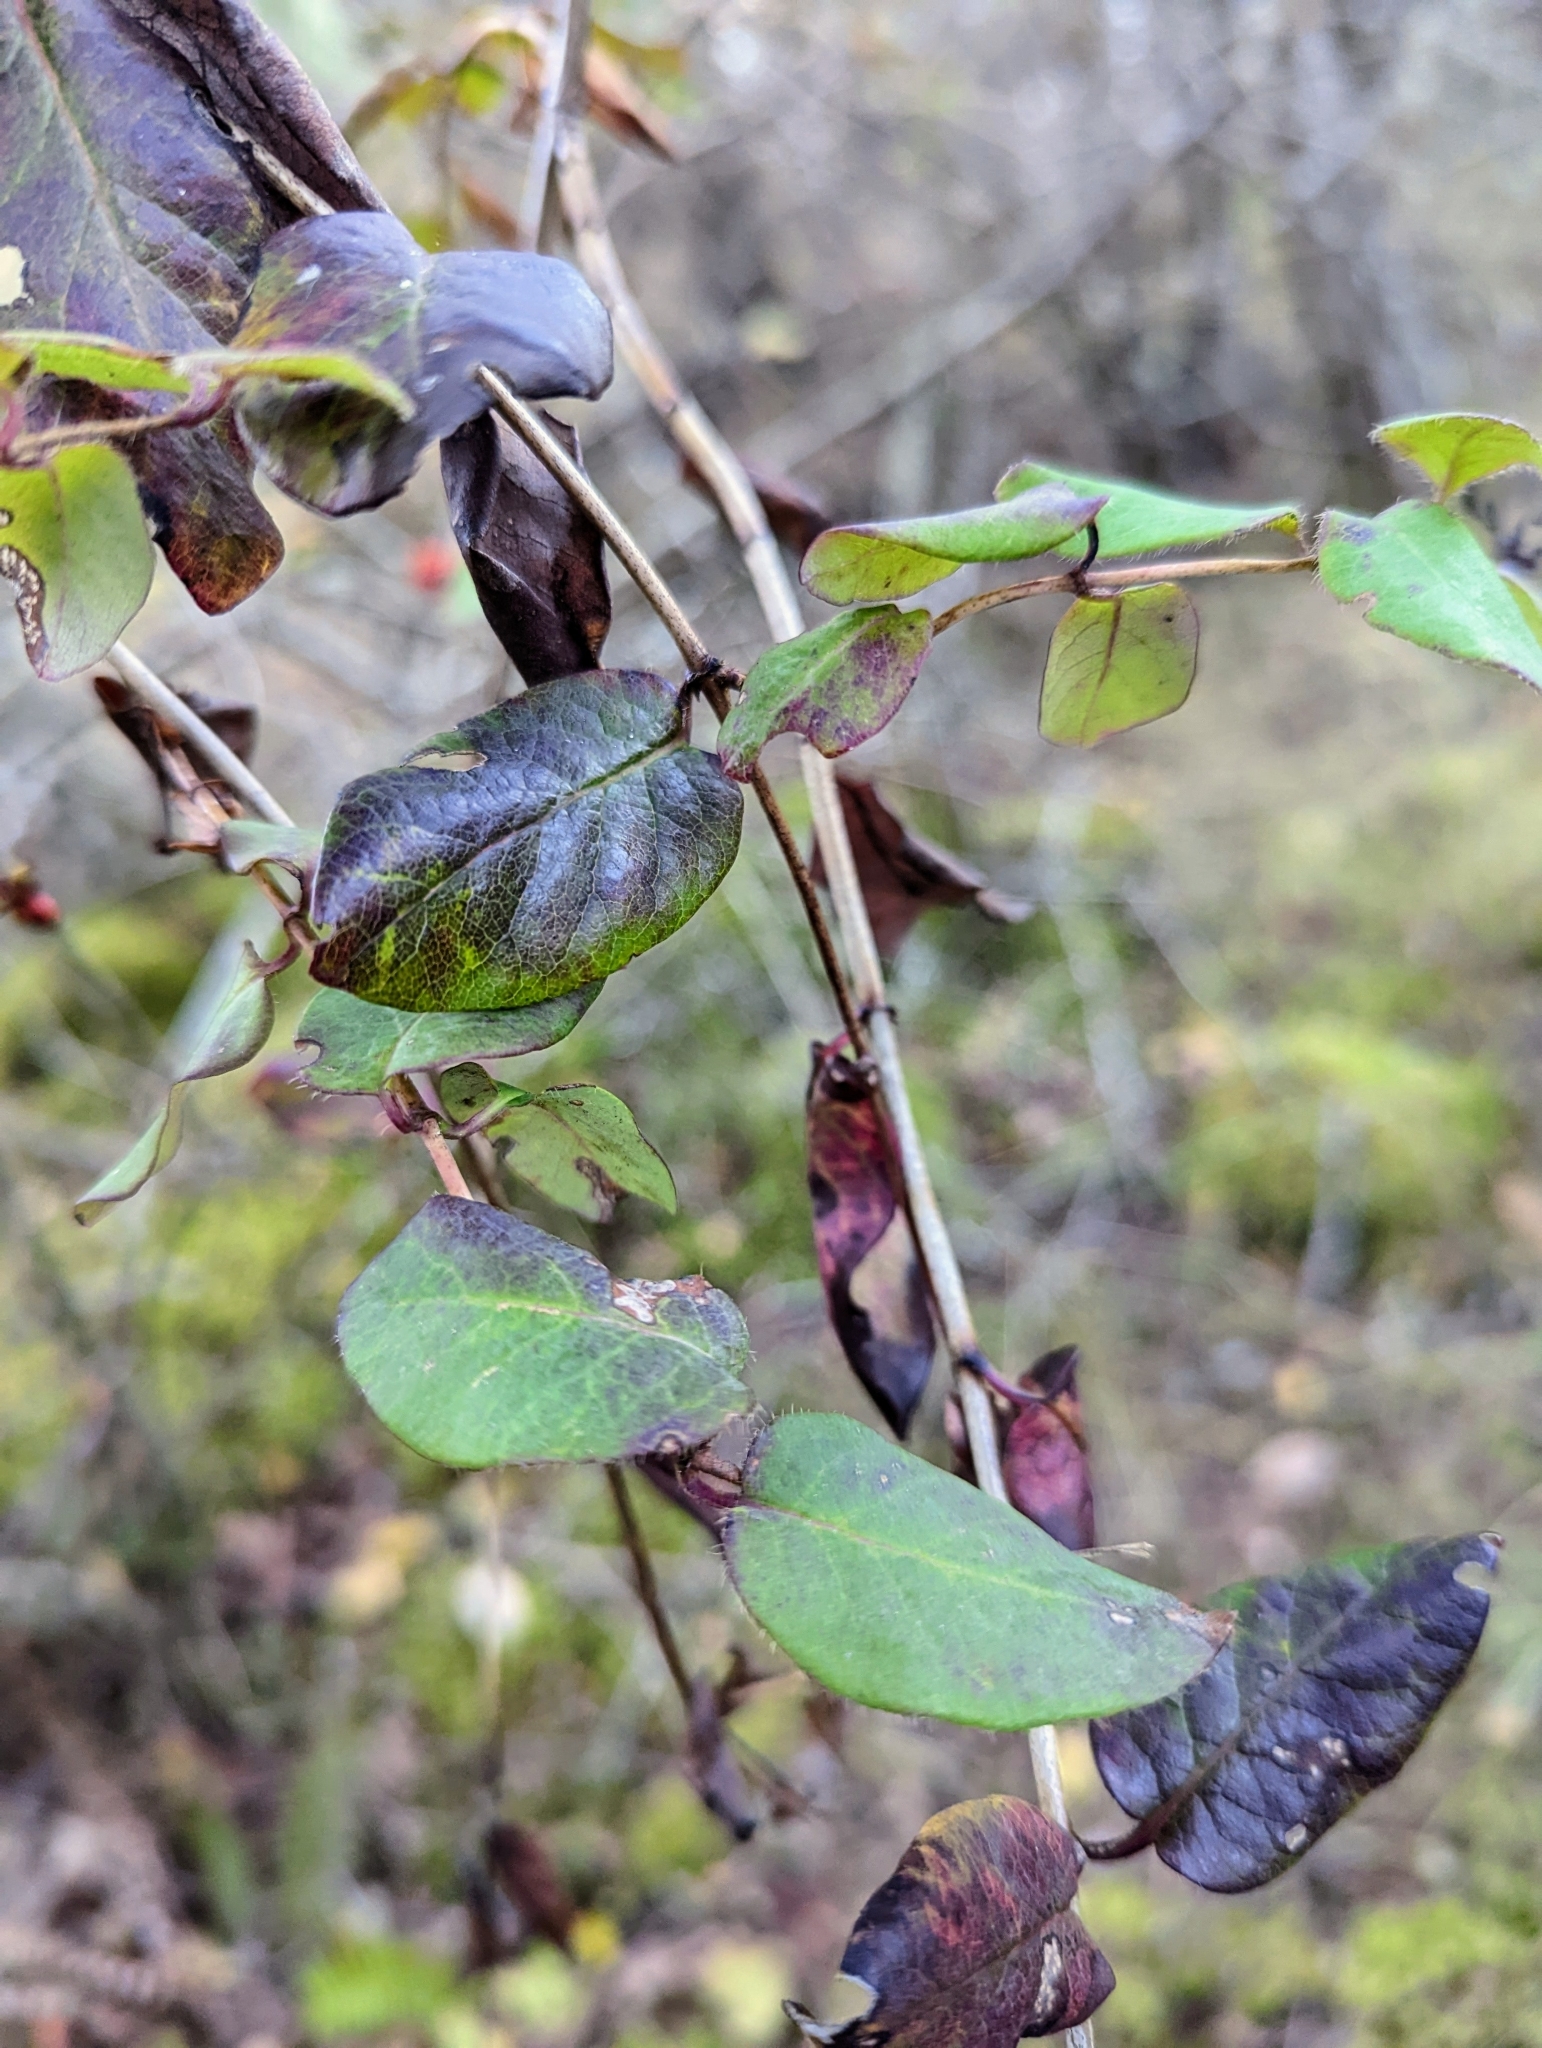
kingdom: Plantae
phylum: Tracheophyta
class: Magnoliopsida
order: Dipsacales
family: Caprifoliaceae
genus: Lonicera
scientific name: Lonicera hispidula
